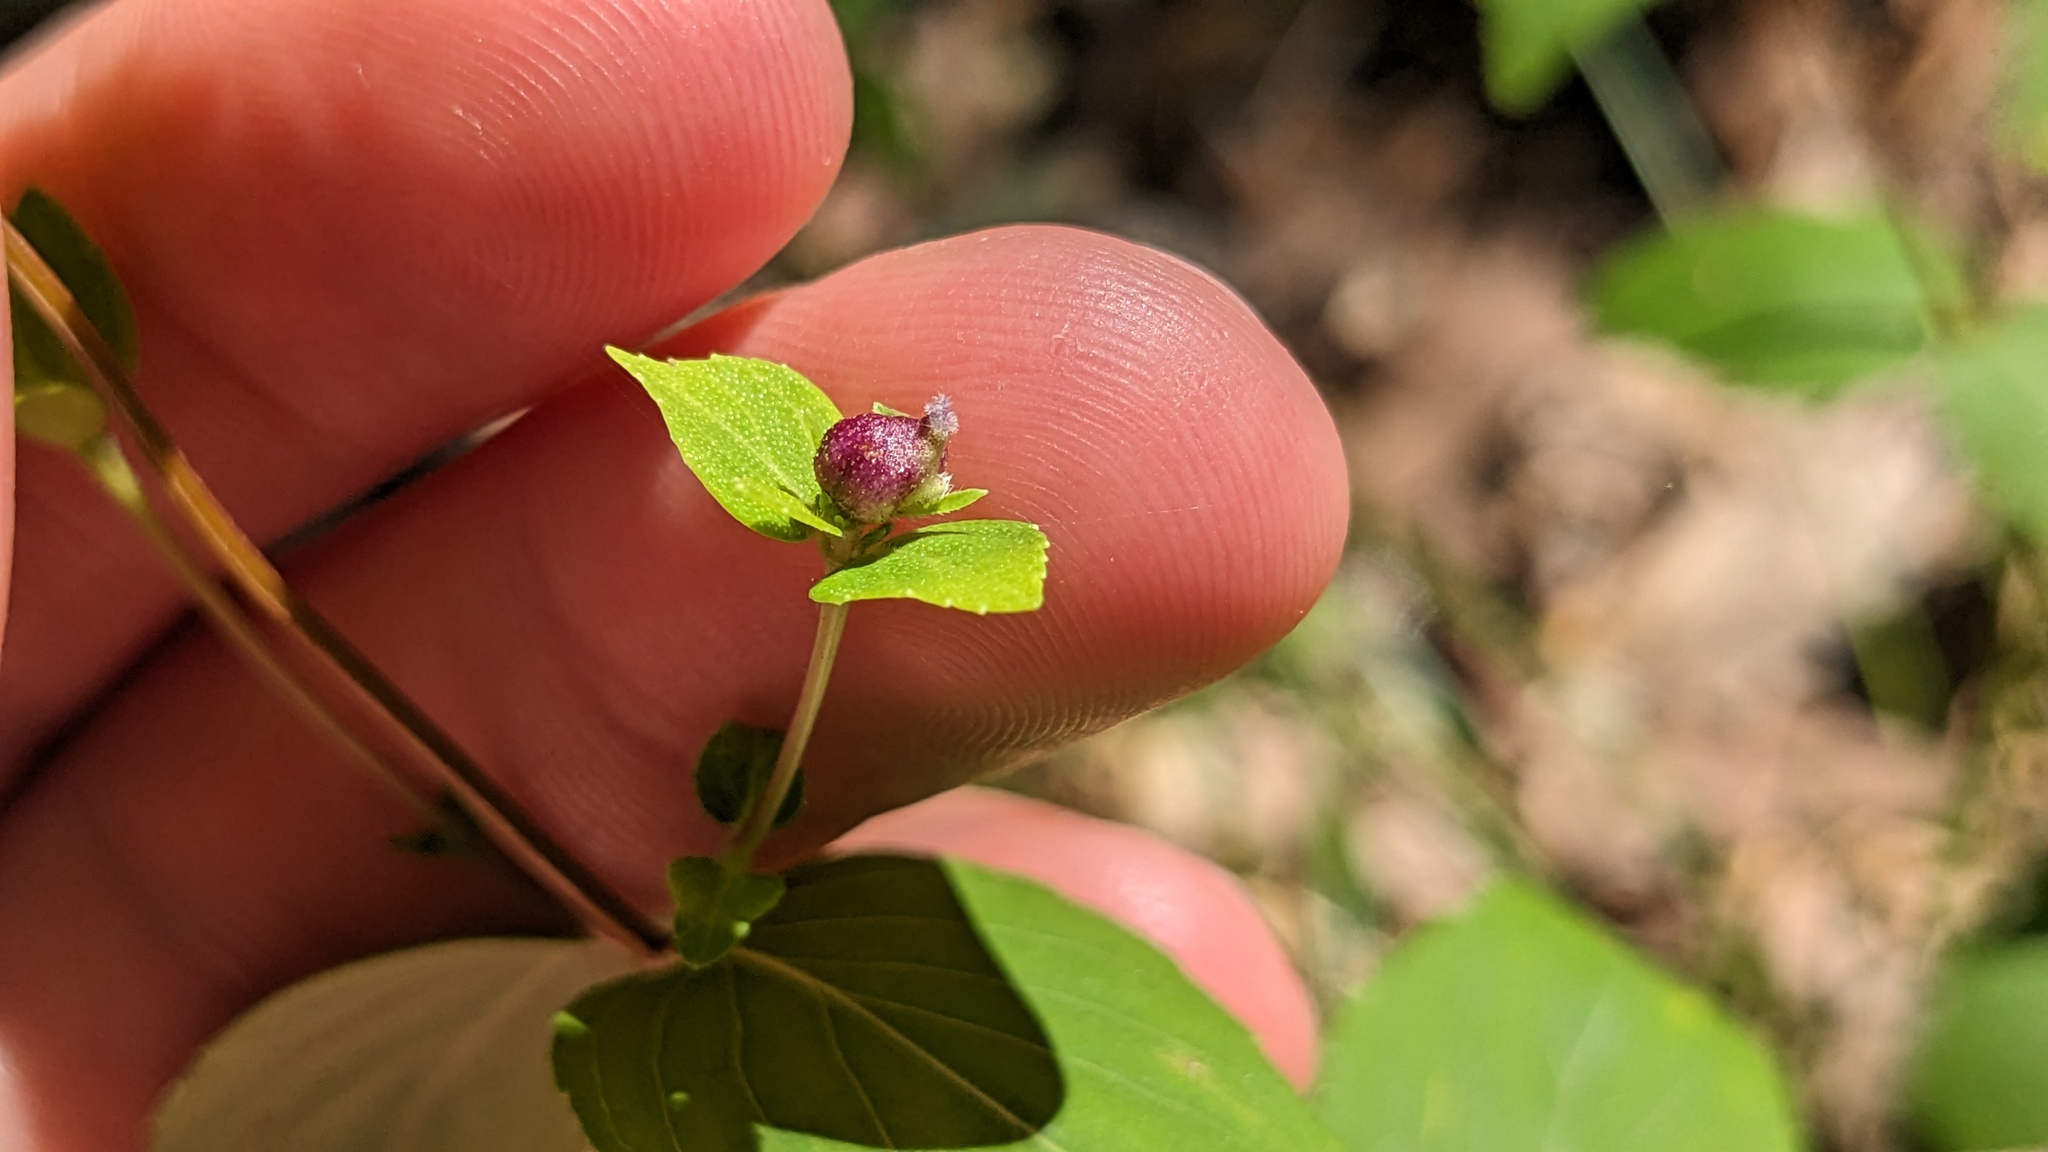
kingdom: Plantae
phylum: Tracheophyta
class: Magnoliopsida
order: Lamiales
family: Lamiaceae
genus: Cunila
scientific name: Cunila origanoides
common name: American dittany
